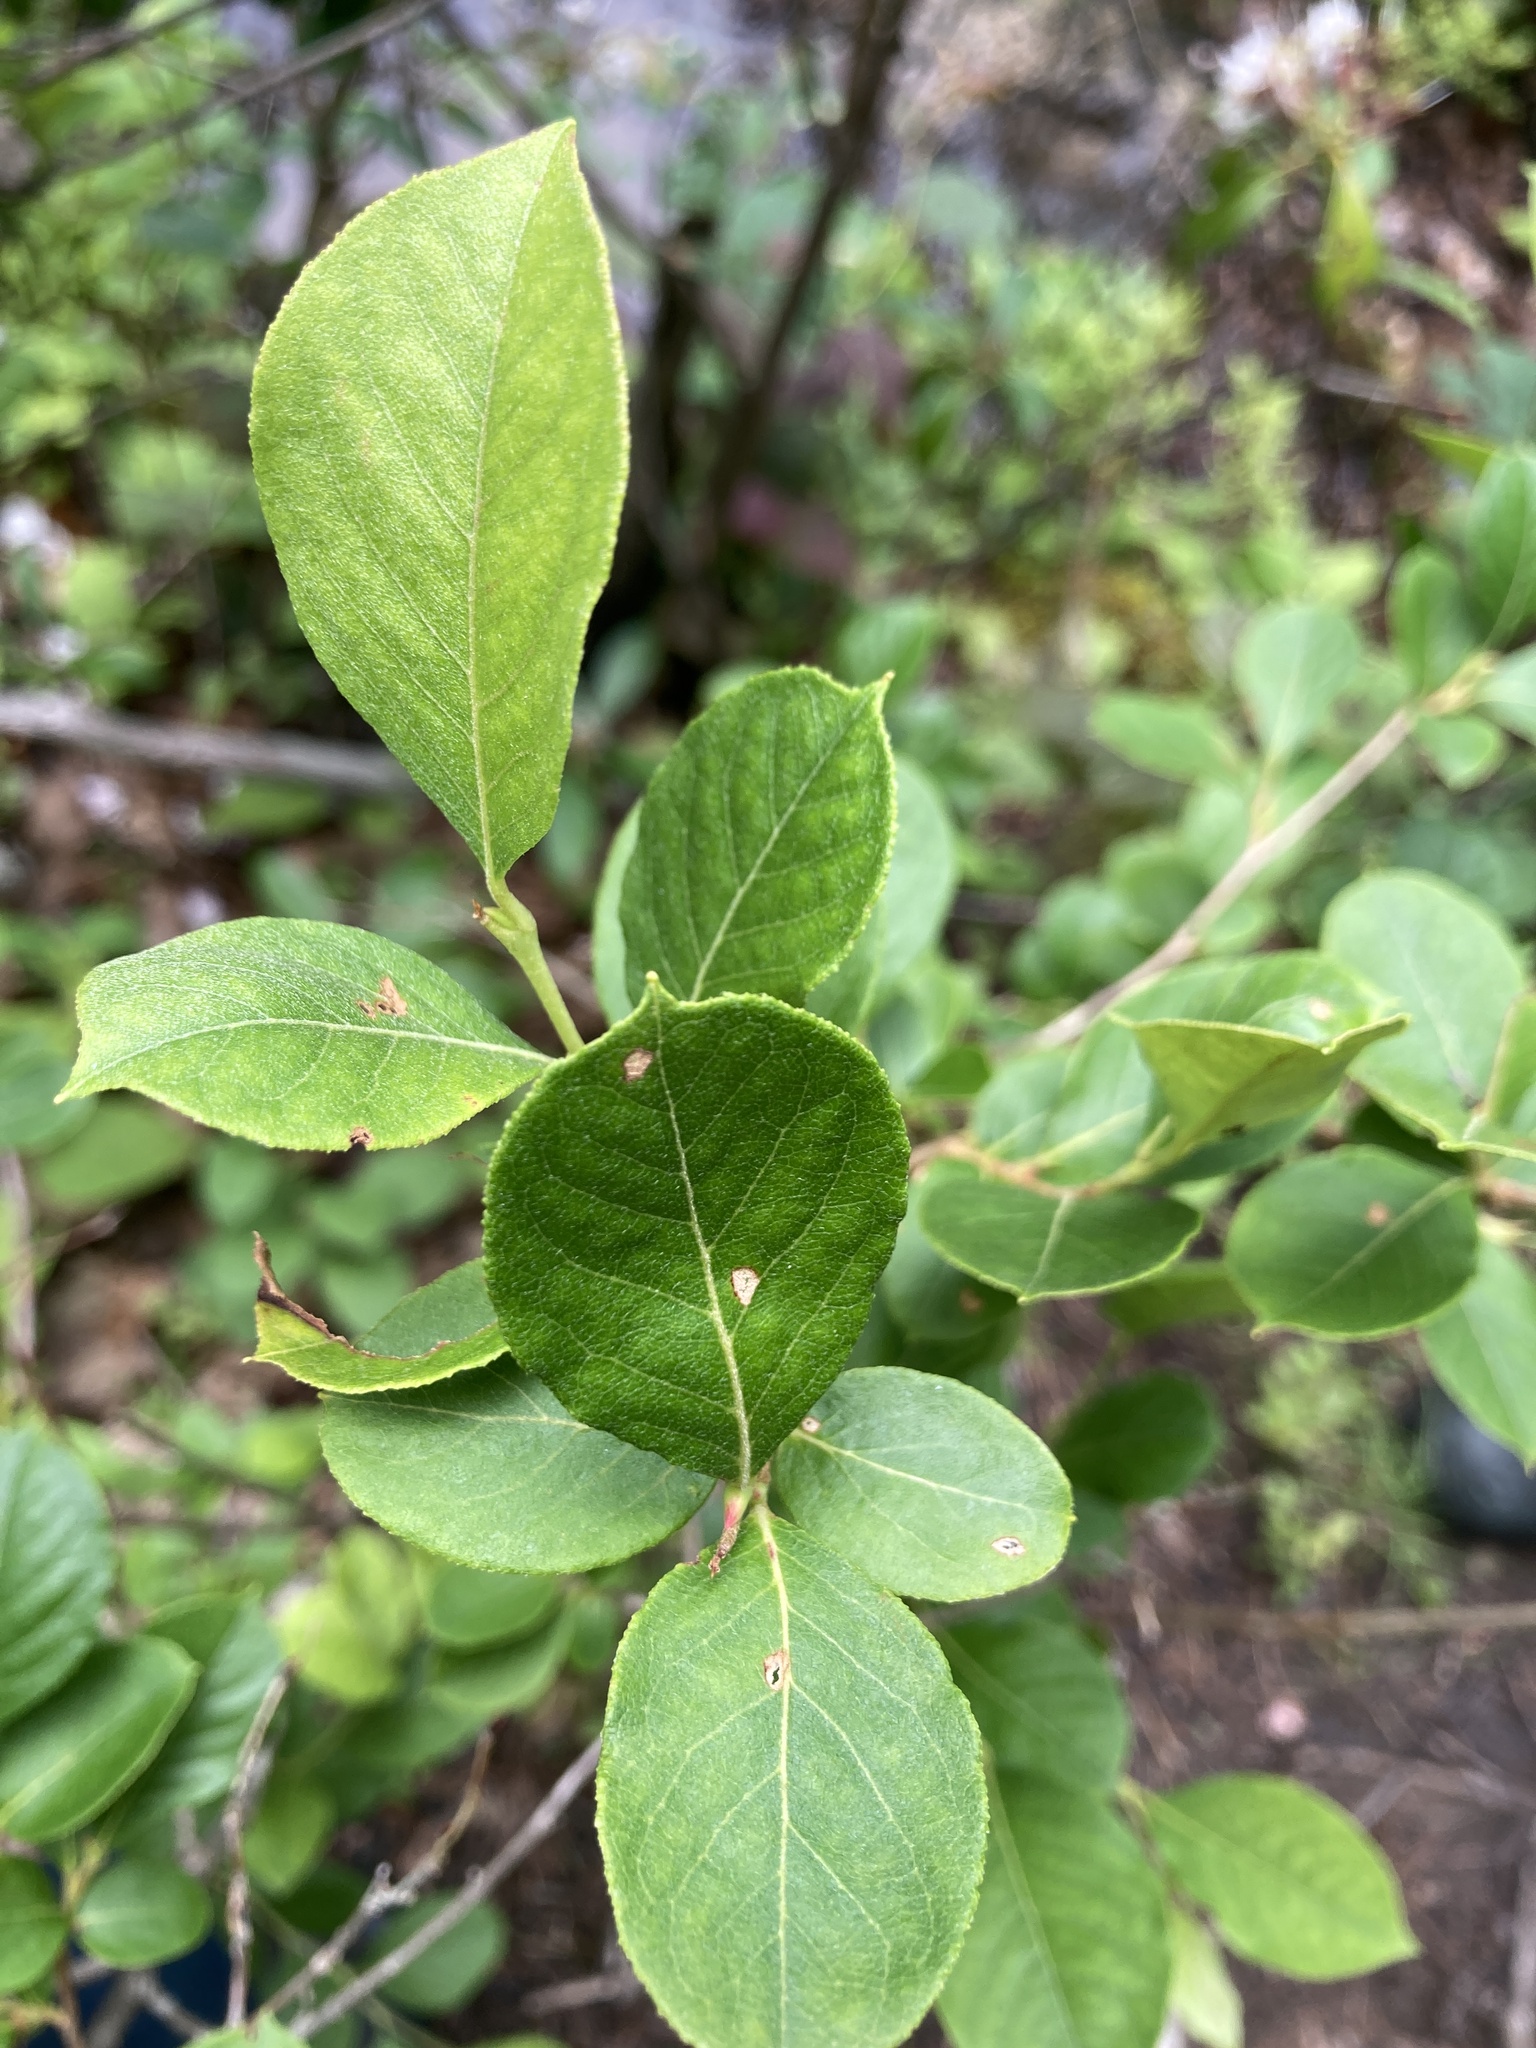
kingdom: Plantae
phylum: Tracheophyta
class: Magnoliopsida
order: Ericales
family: Ericaceae
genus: Lyonia
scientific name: Lyonia ligustrina
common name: Maleberry
